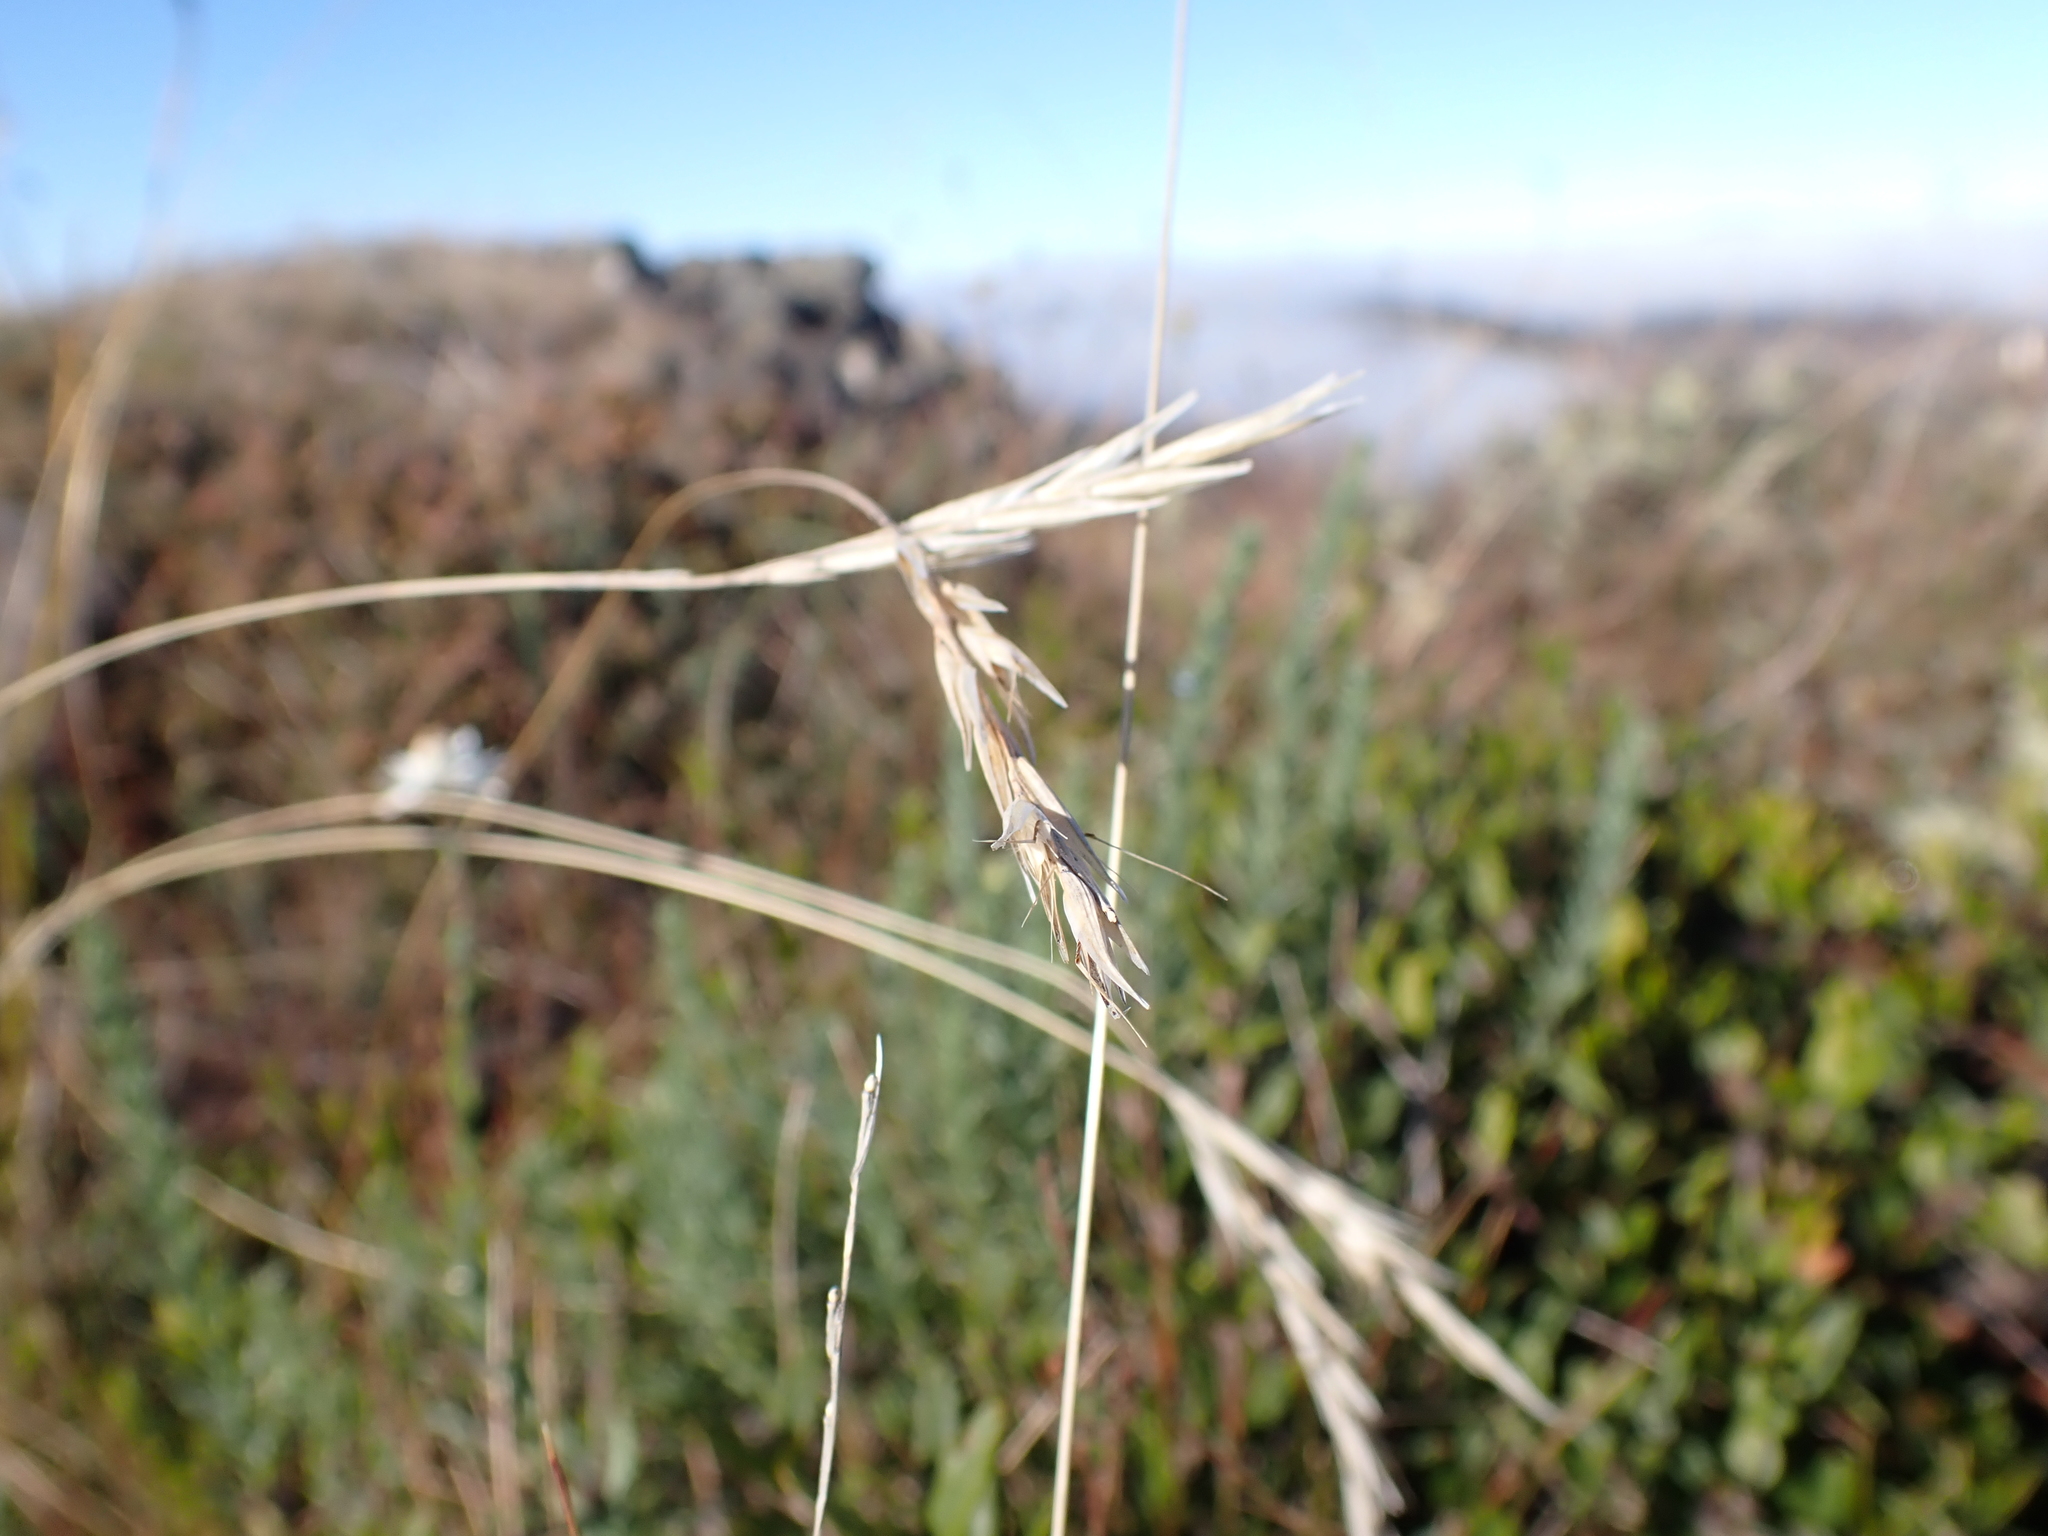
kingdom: Plantae
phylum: Tracheophyta
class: Liliopsida
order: Poales
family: Poaceae
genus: Rytidosperma
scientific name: Rytidosperma penicillatum
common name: Hairy wallaby grass
